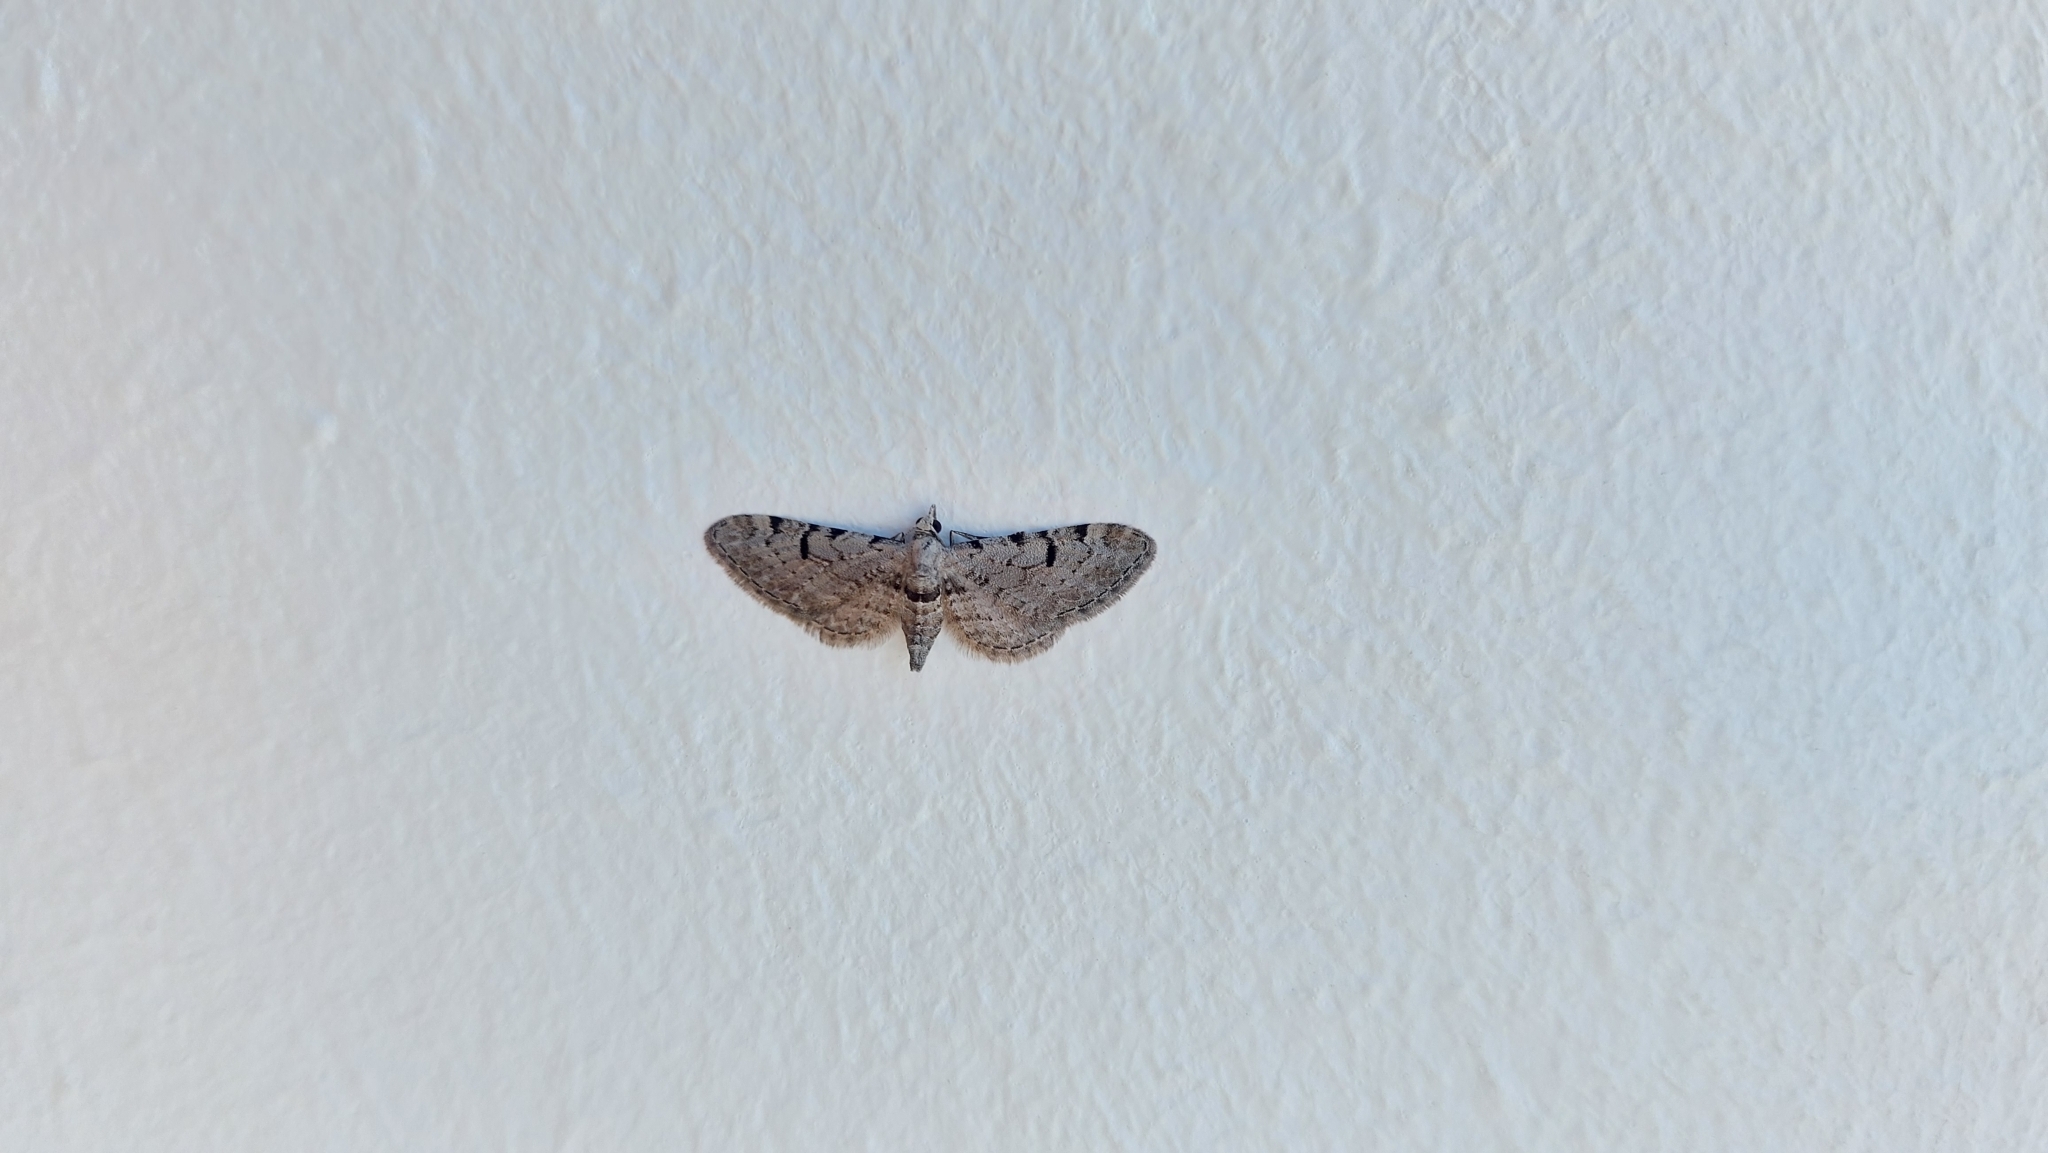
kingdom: Animalia
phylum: Arthropoda
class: Insecta
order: Lepidoptera
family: Geometridae
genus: Eupithecia
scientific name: Eupithecia rosai
